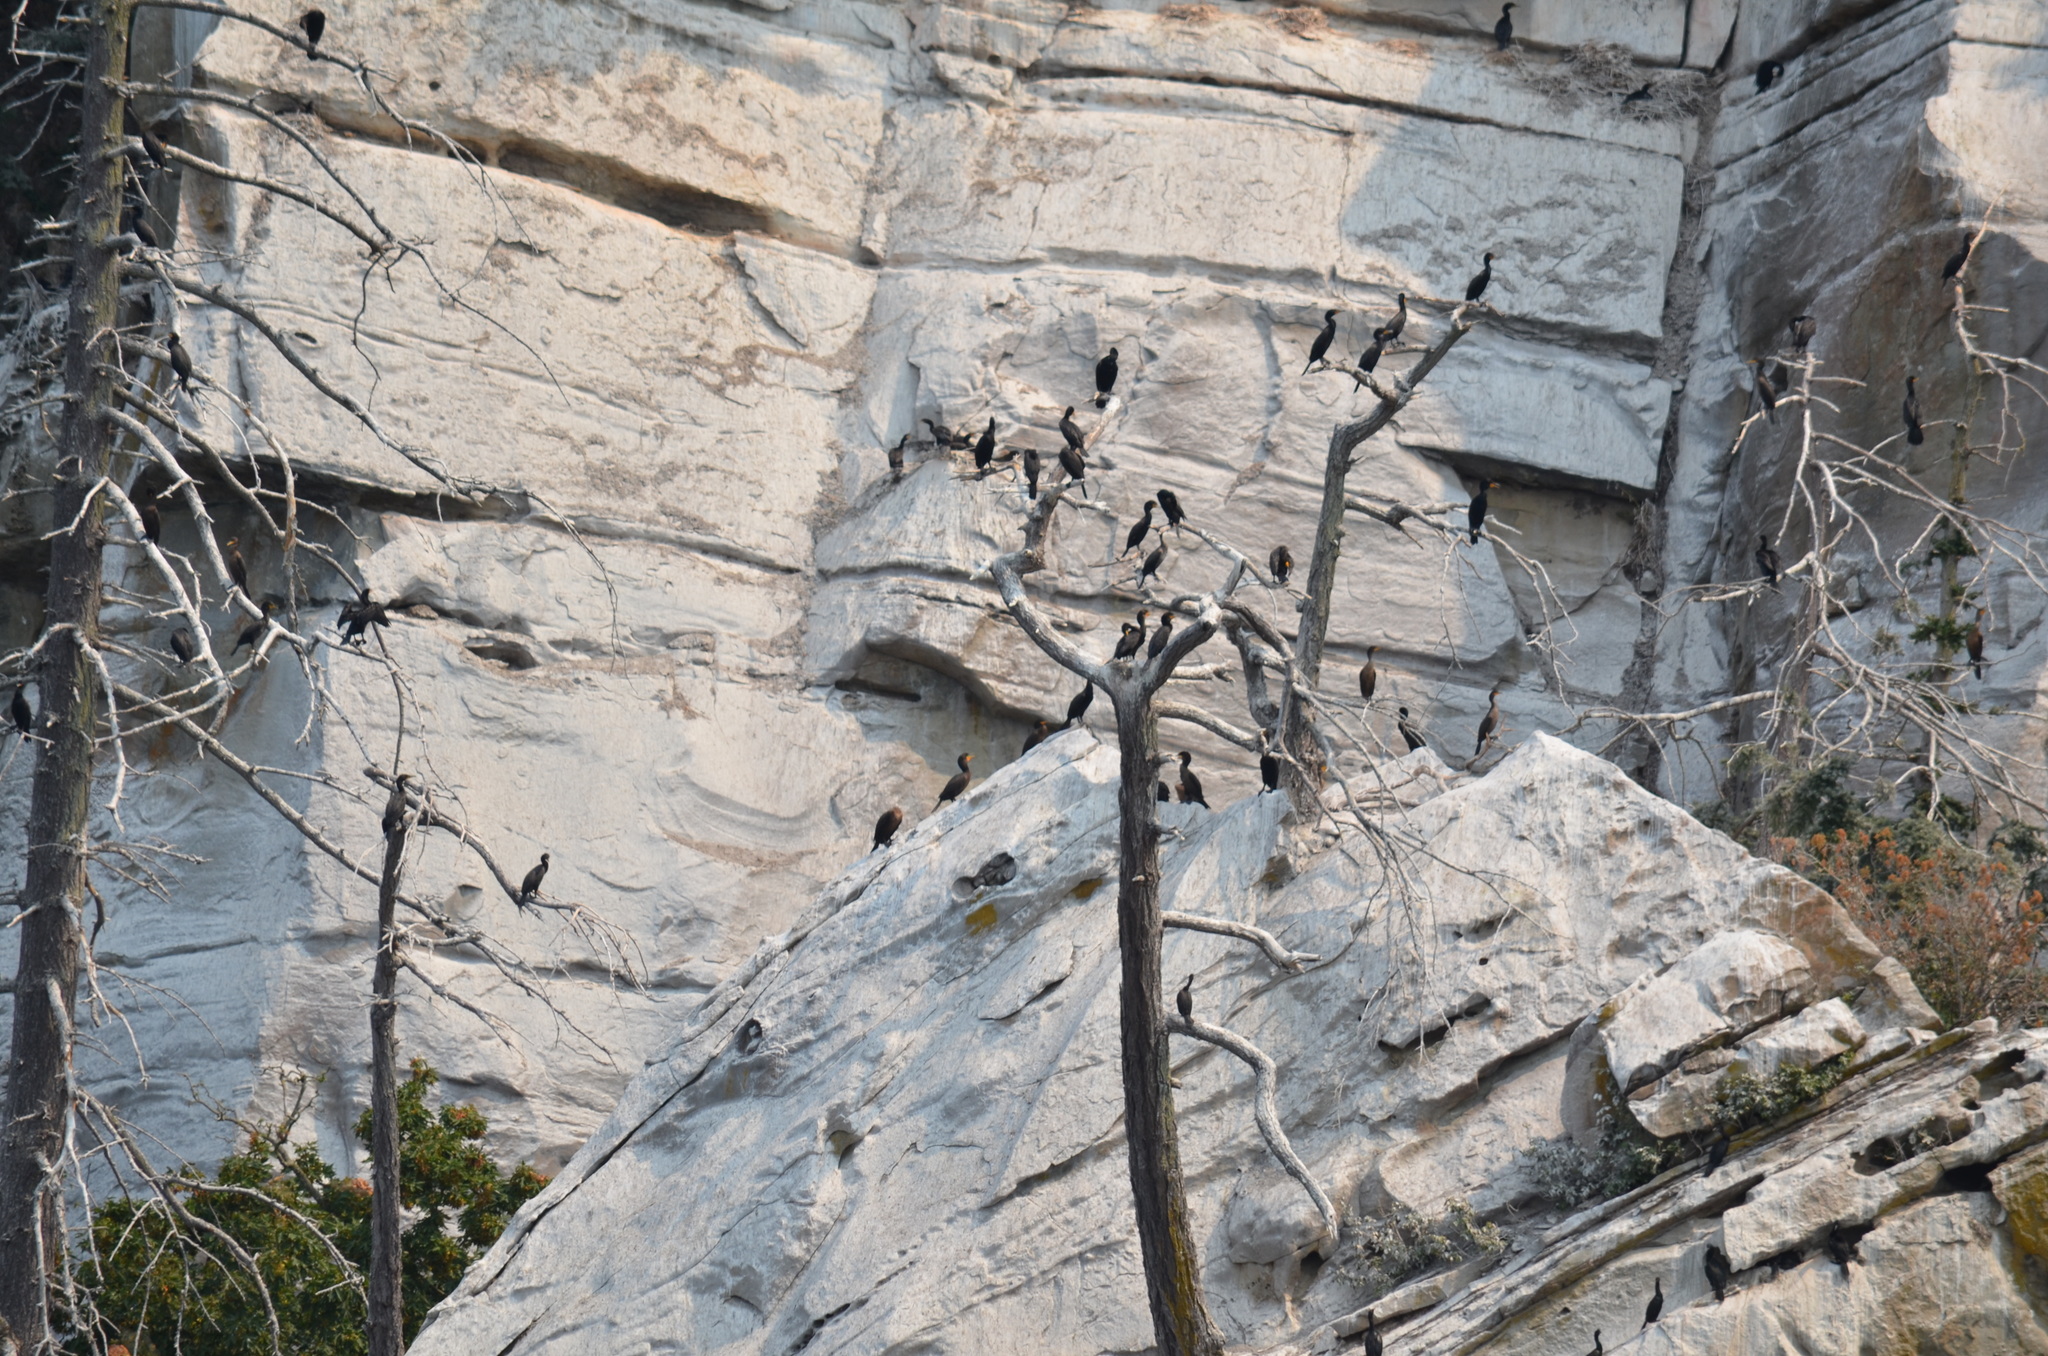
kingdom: Animalia
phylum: Chordata
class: Aves
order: Suliformes
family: Phalacrocoracidae
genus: Phalacrocorax
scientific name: Phalacrocorax auritus
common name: Double-crested cormorant
